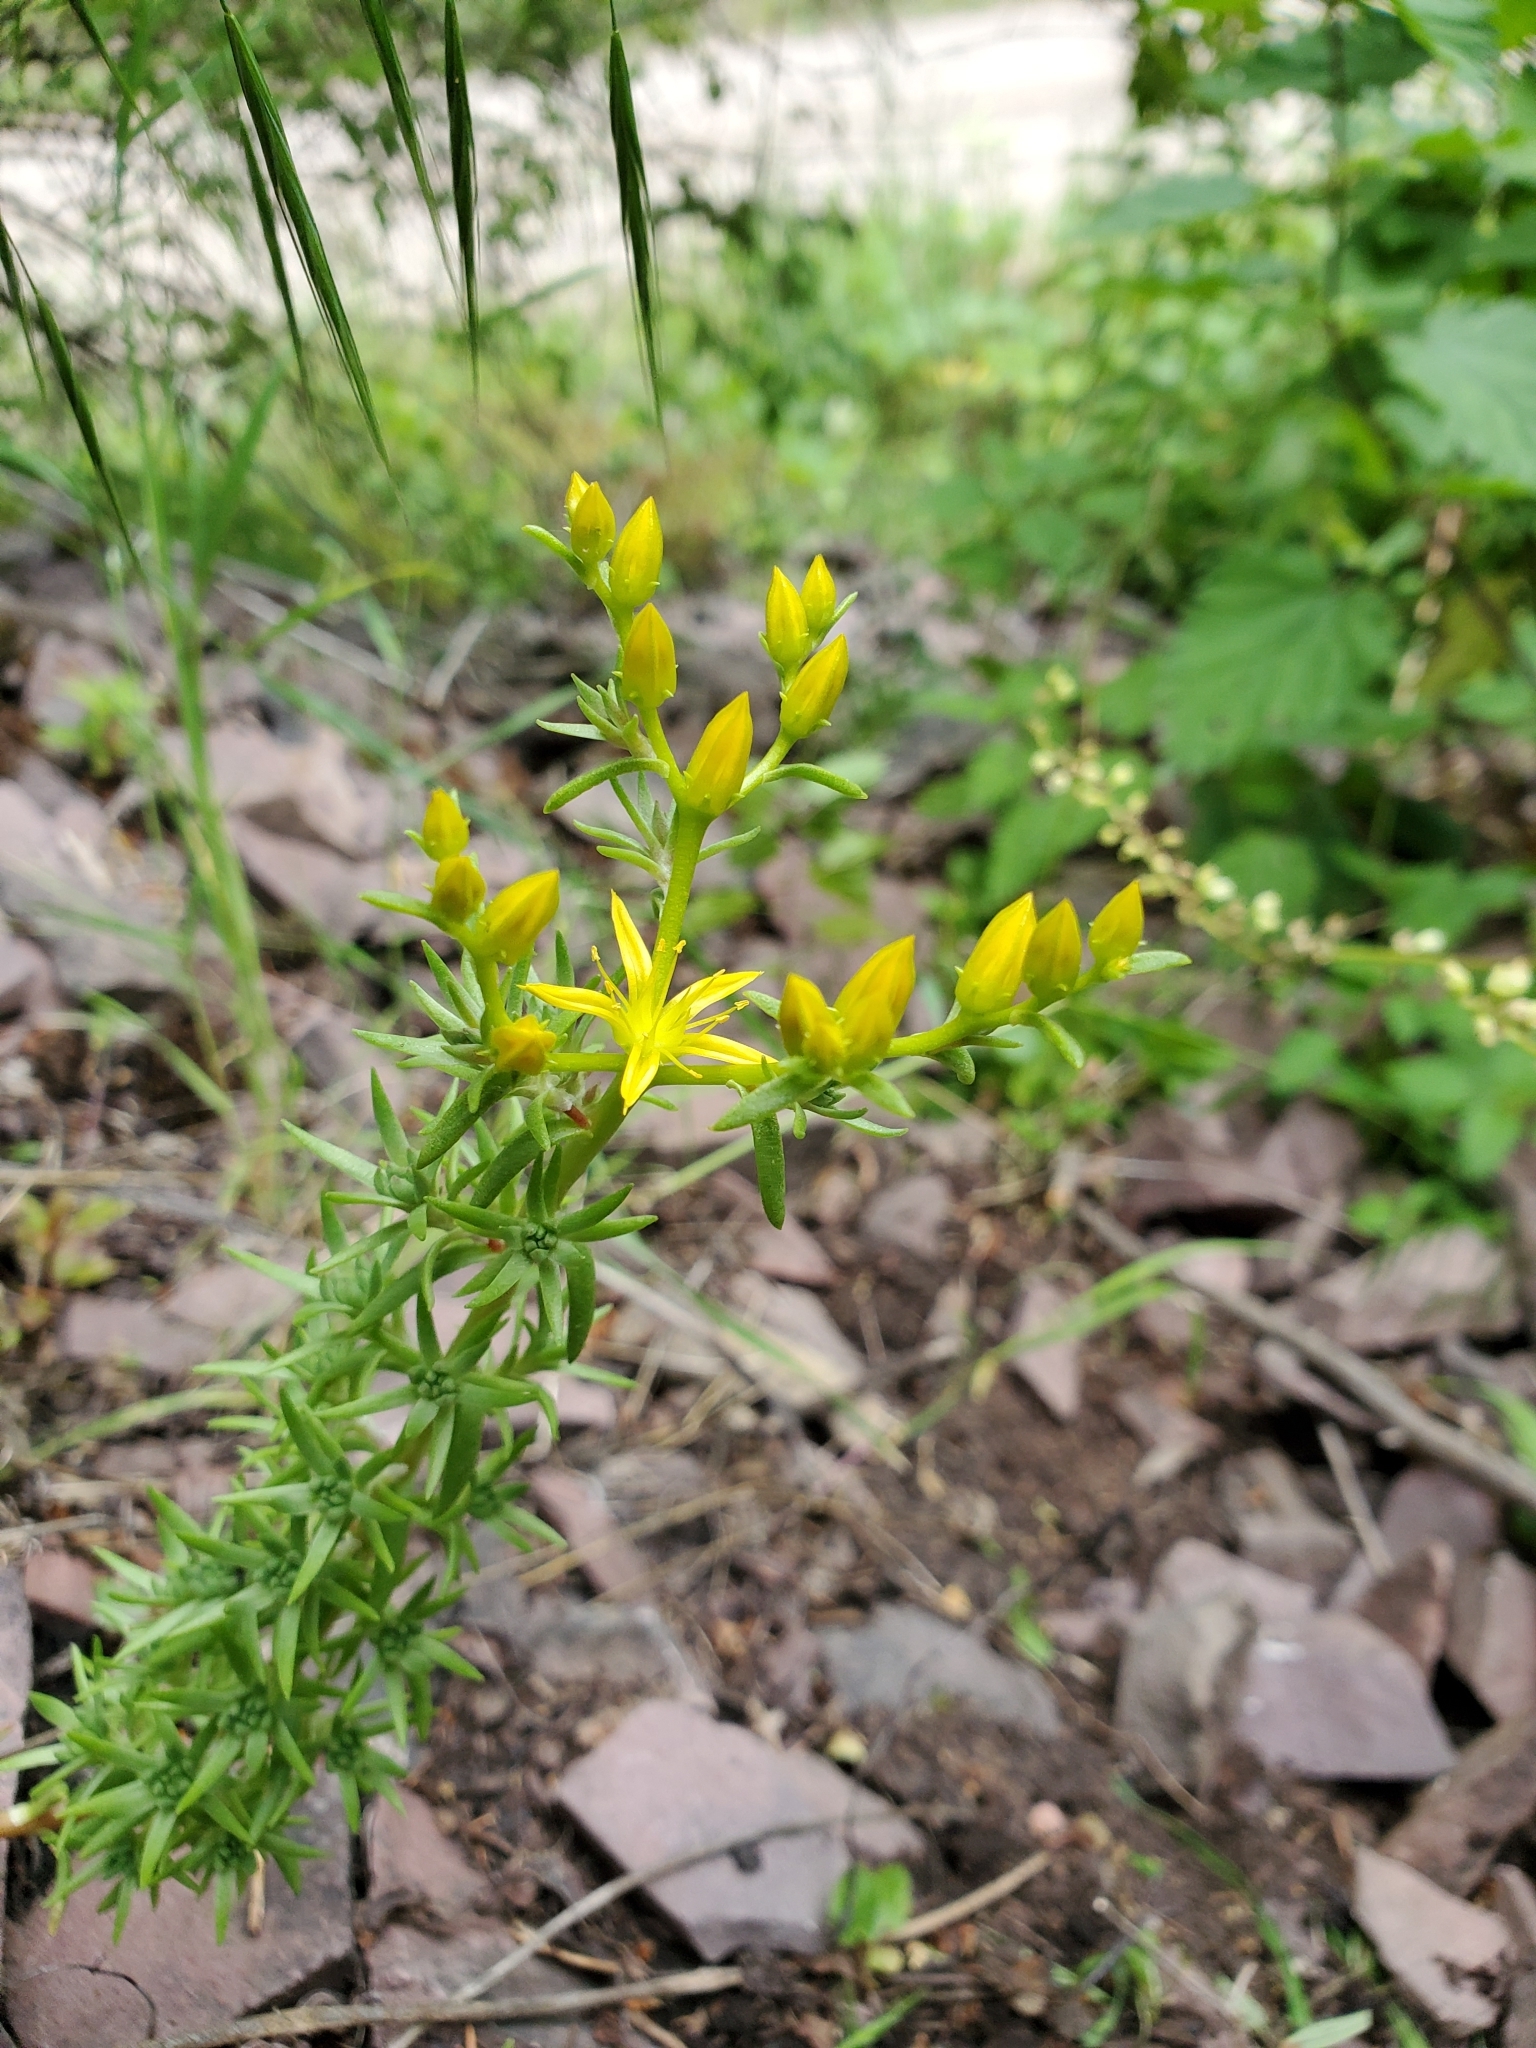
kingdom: Plantae
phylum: Tracheophyta
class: Magnoliopsida
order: Saxifragales
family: Crassulaceae
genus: Sedum
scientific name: Sedum stenopetalum
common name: Narrow-petaled stonecrop
